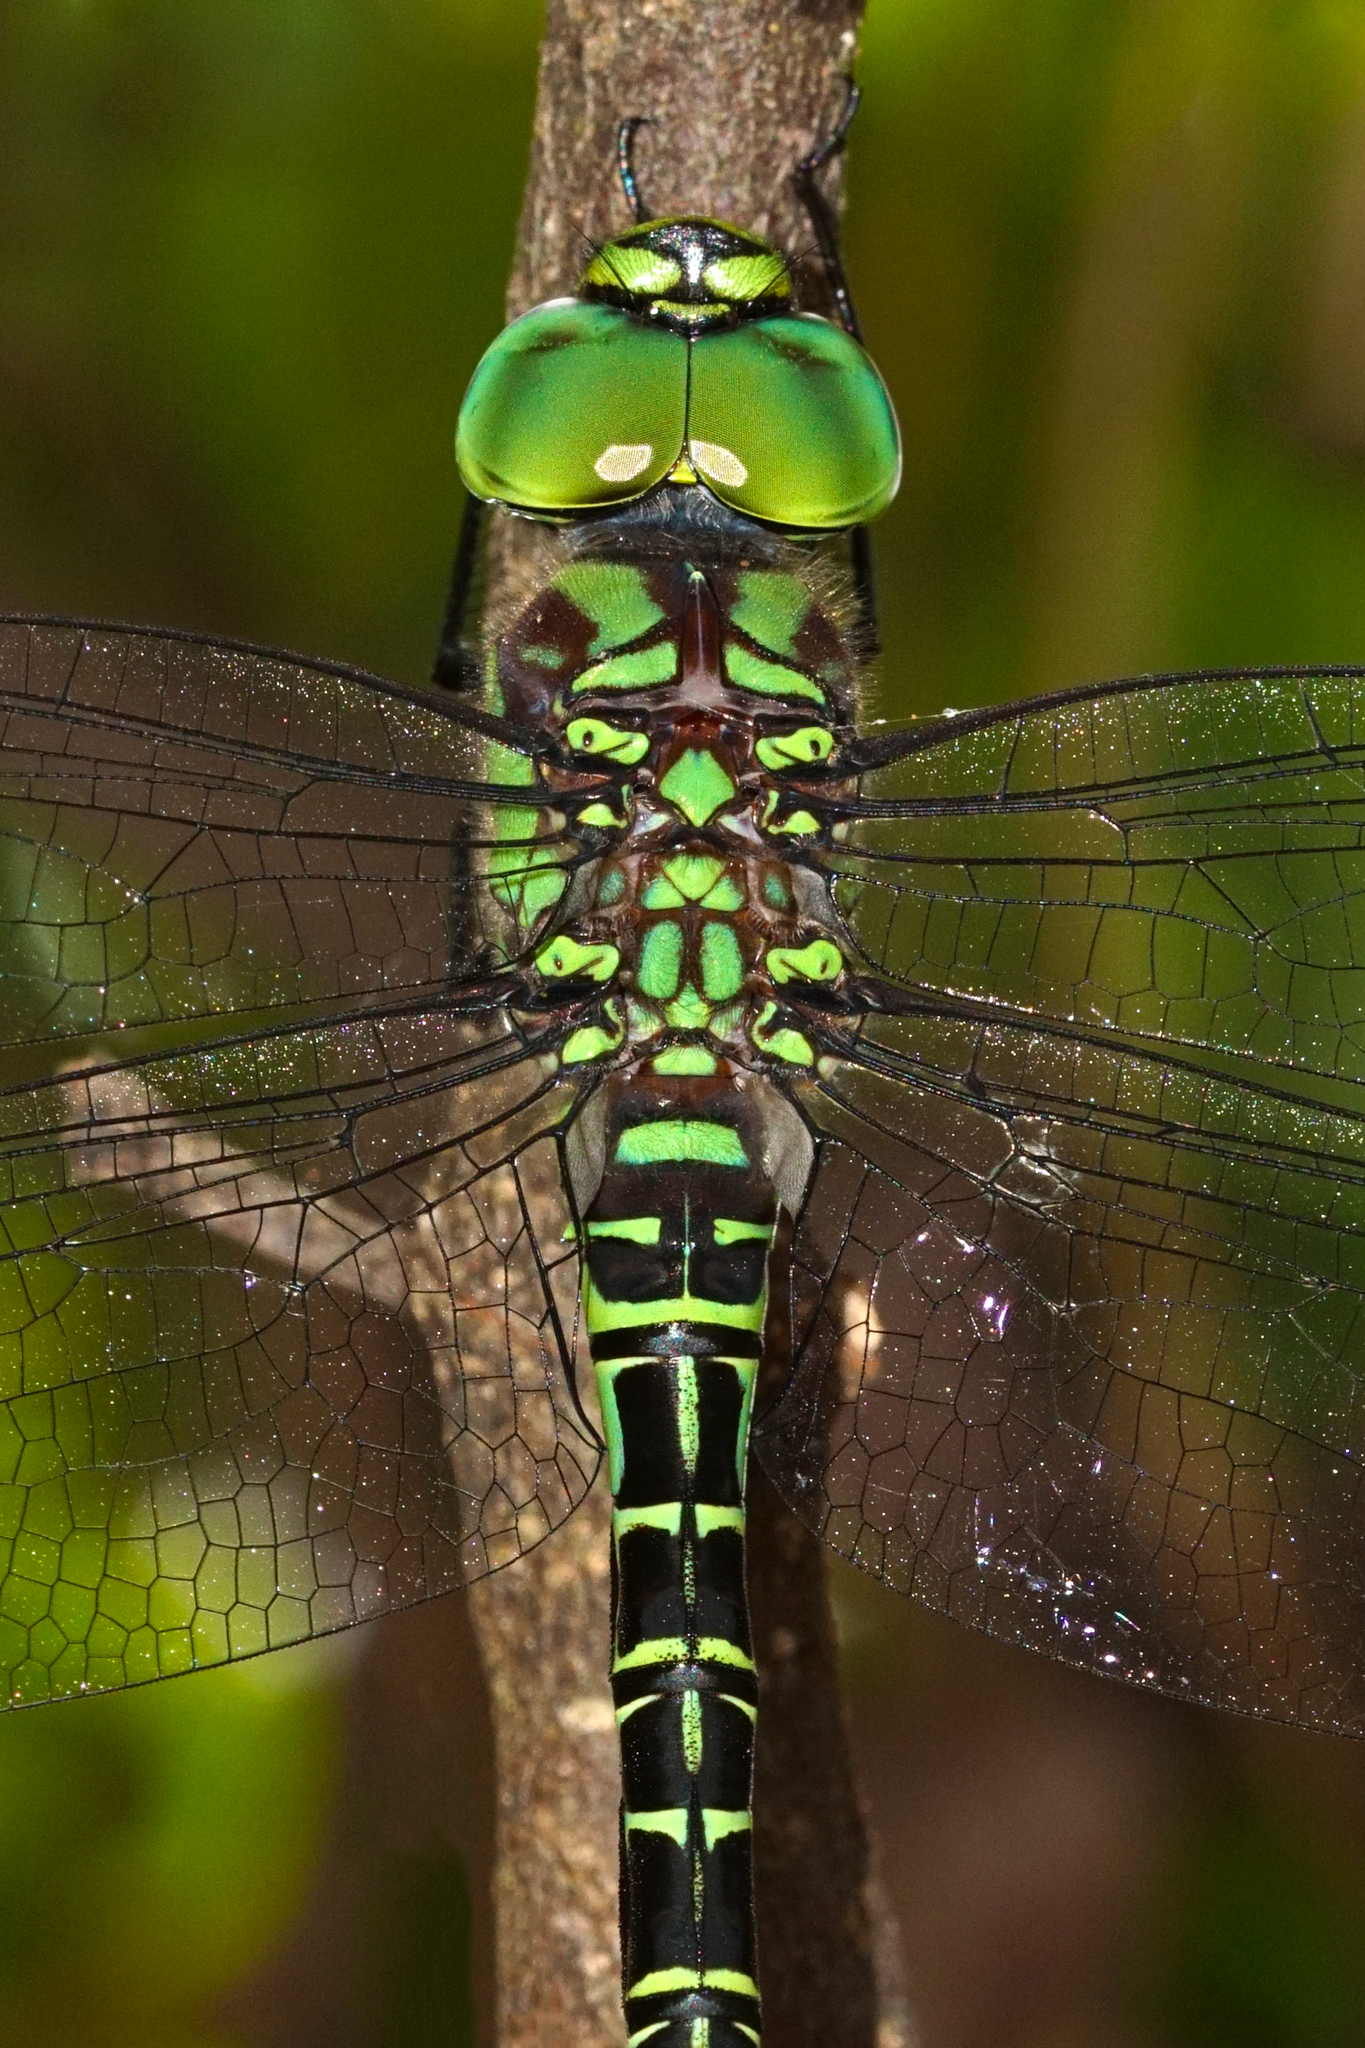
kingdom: Animalia
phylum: Arthropoda
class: Insecta
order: Odonata
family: Aeshnidae
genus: Coryphaeschna
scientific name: Coryphaeschna ingens
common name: Regal darner
